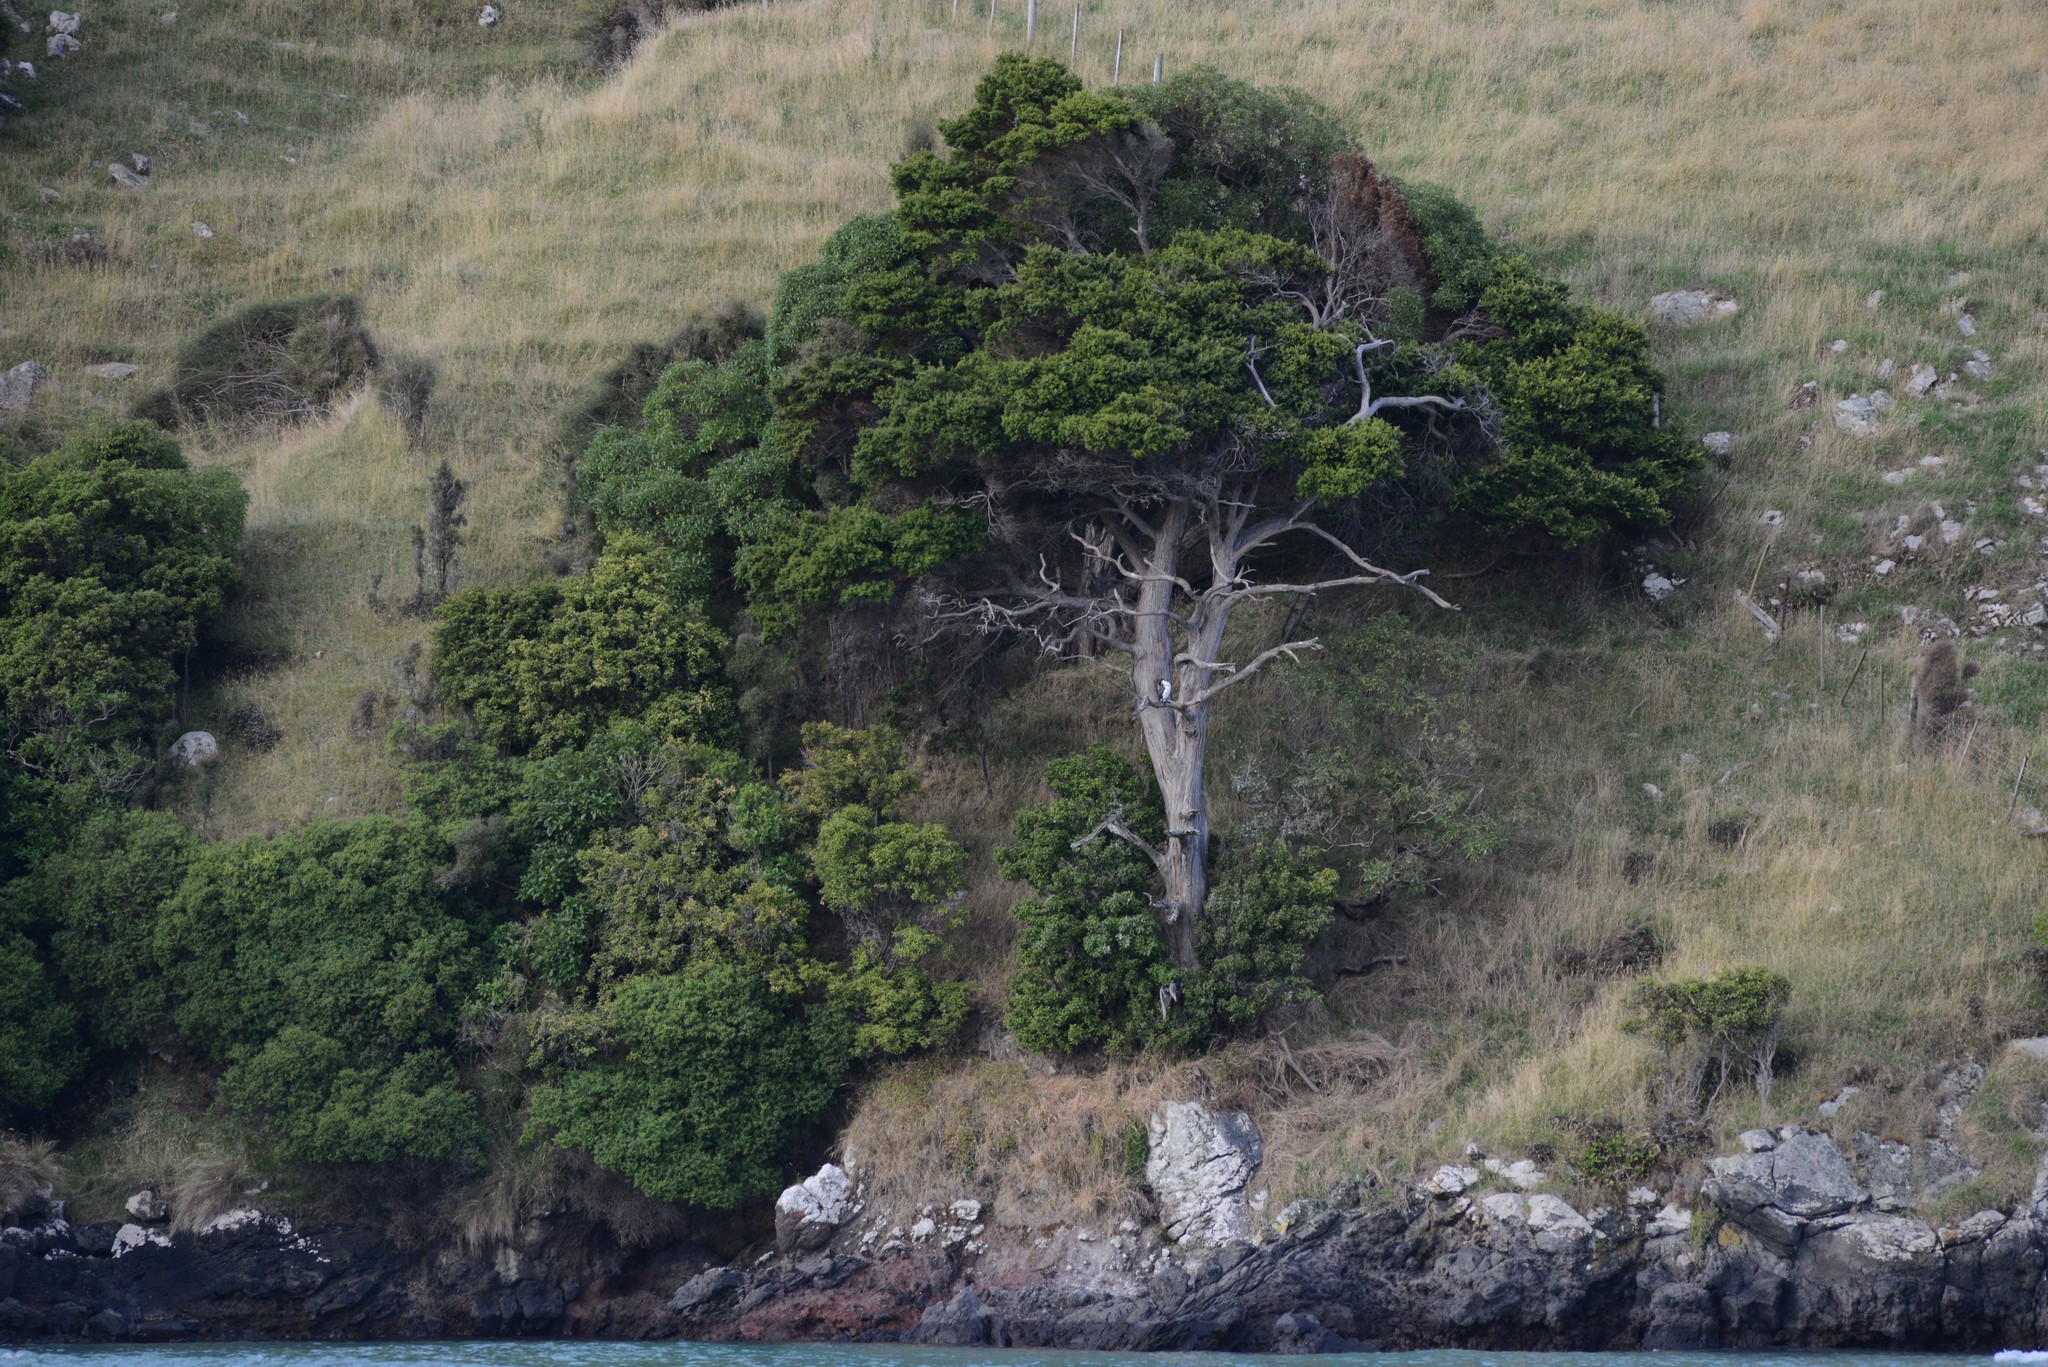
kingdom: Animalia
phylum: Chordata
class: Aves
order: Suliformes
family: Phalacrocoracidae
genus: Phalacrocorax
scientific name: Phalacrocorax varius
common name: Pied cormorant
